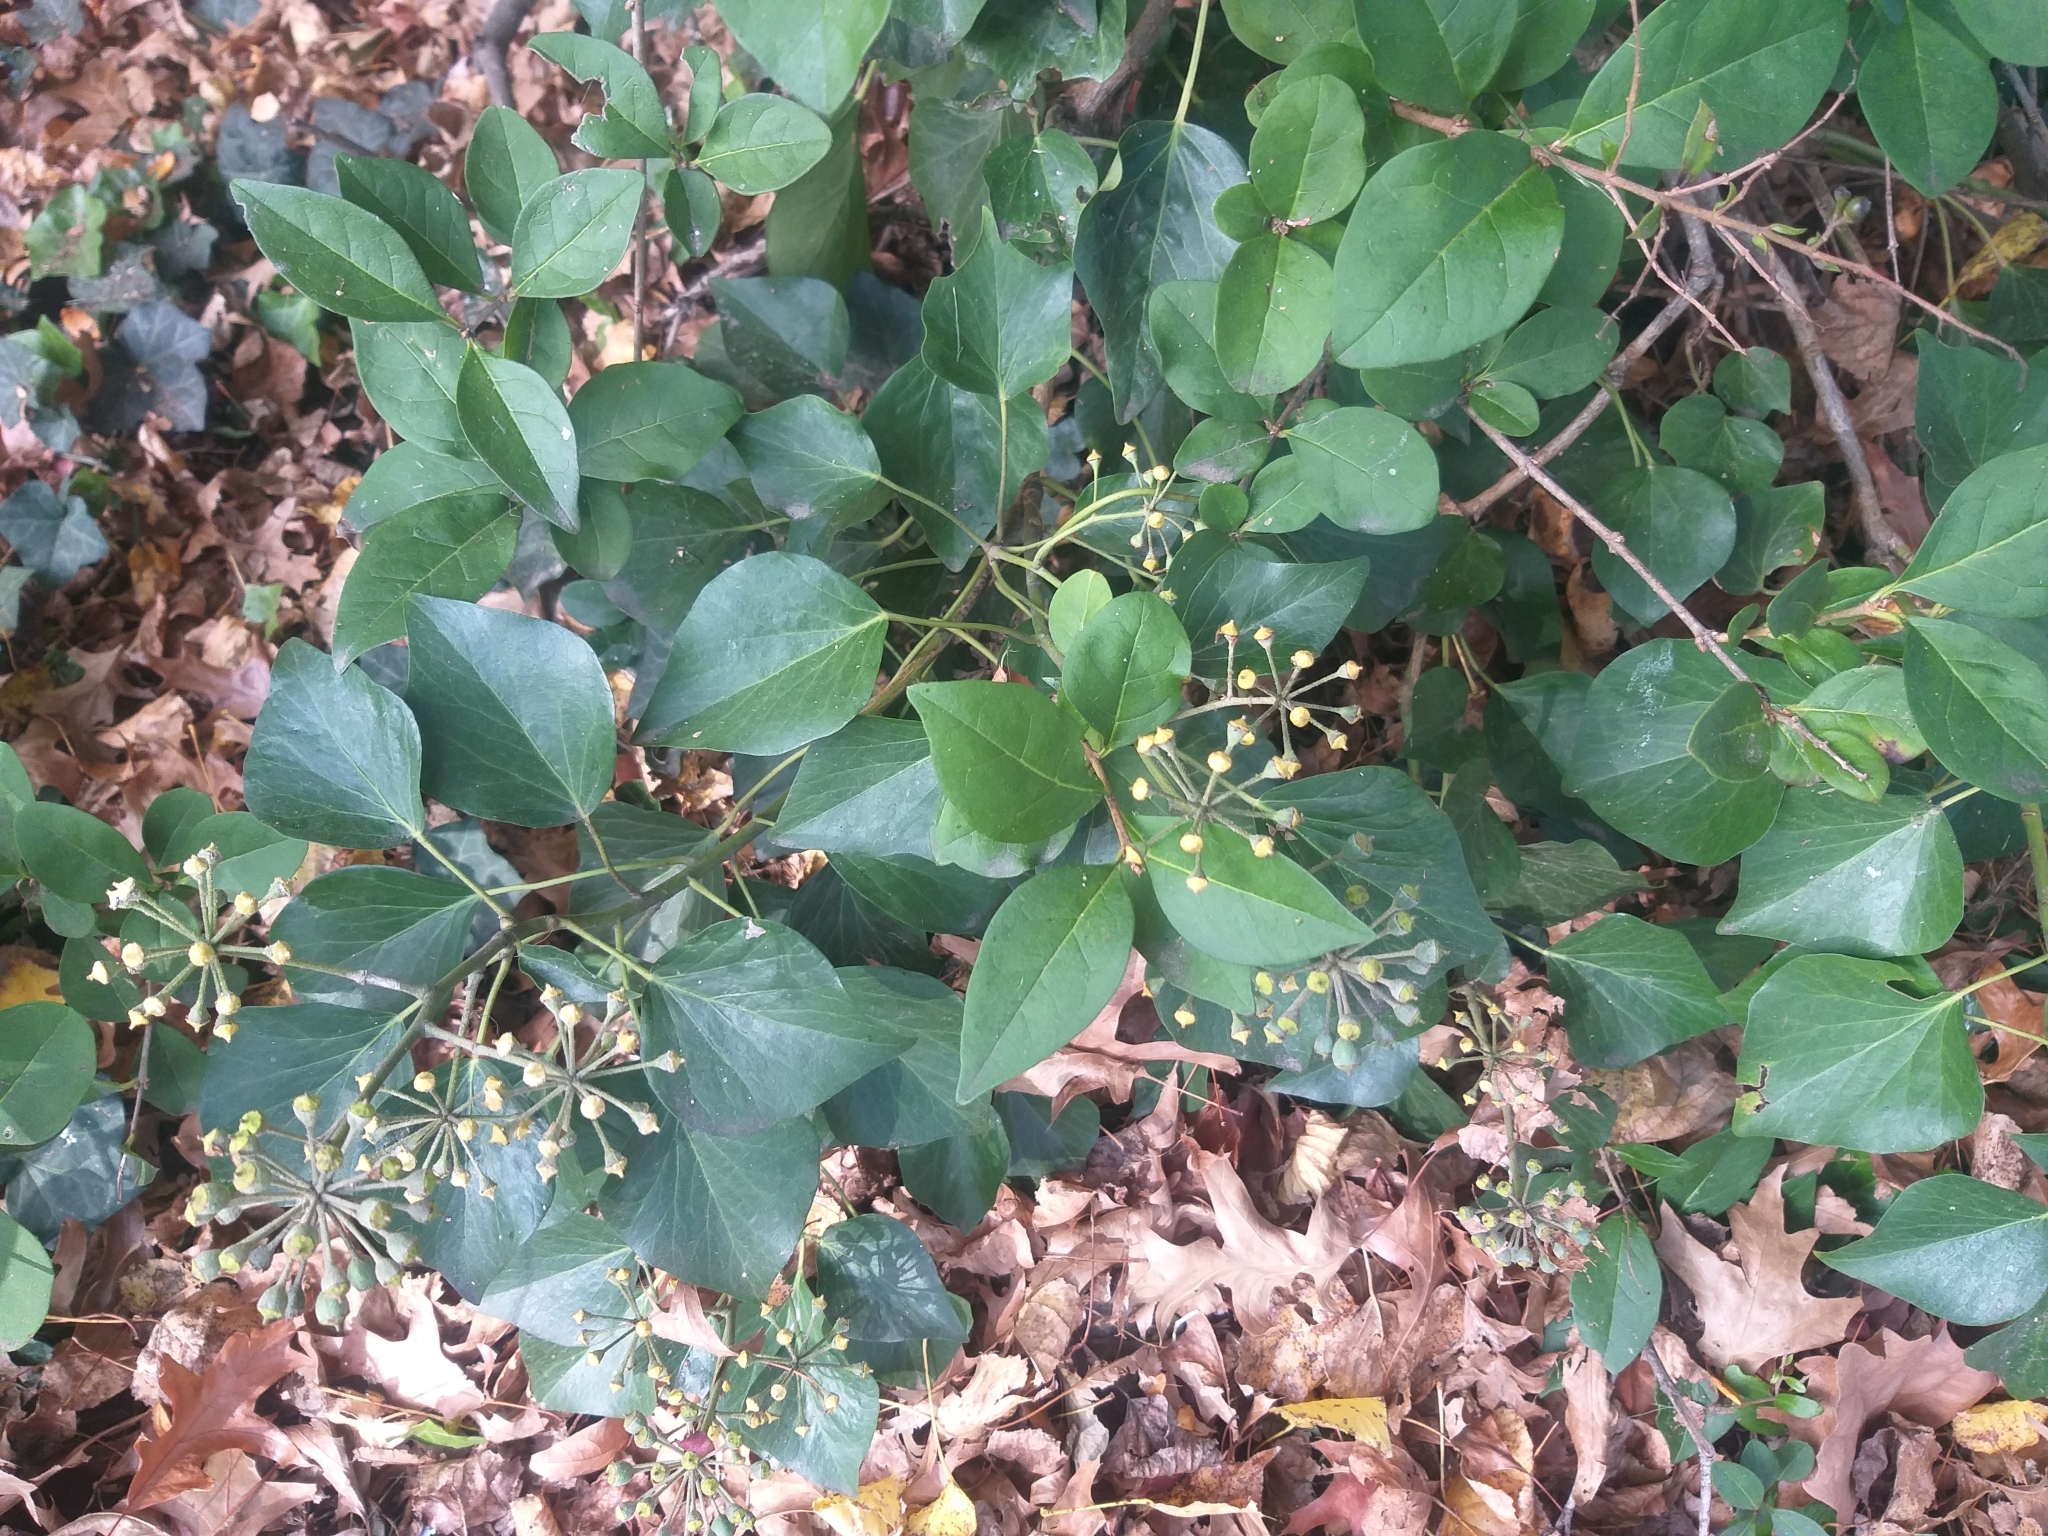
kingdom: Plantae
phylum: Tracheophyta
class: Magnoliopsida
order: Lamiales
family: Oleaceae
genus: Ligustrum
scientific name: Ligustrum vulgare
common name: Wild privet
